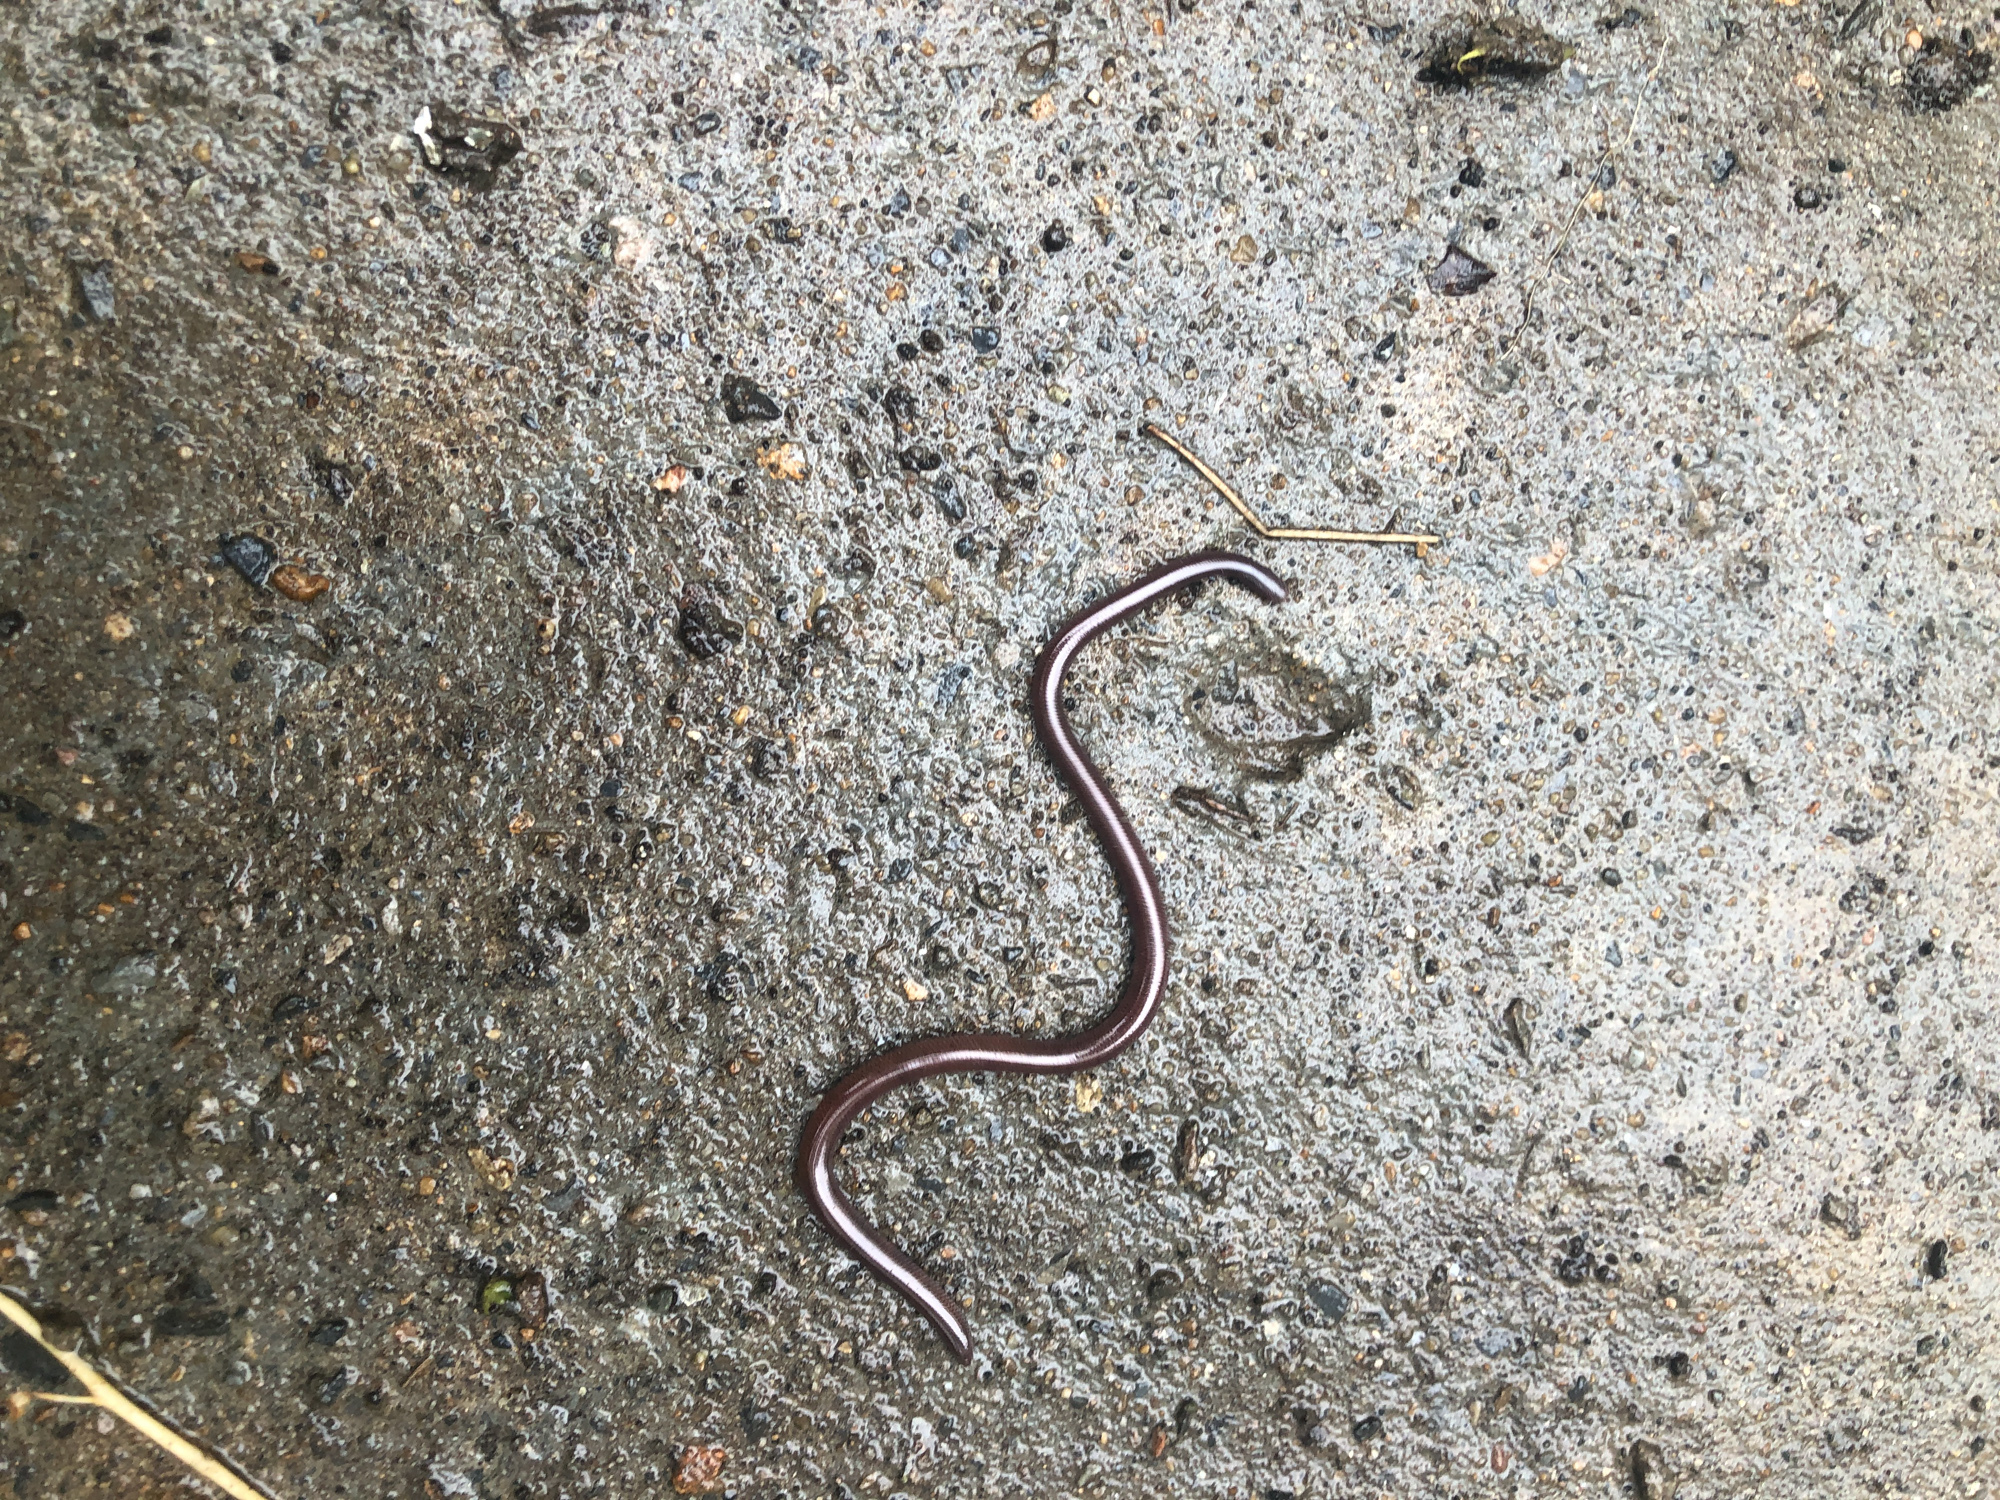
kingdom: Animalia
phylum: Chordata
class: Squamata
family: Typhlopidae
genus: Indotyphlops
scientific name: Indotyphlops braminus
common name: Brahminy blindsnake
